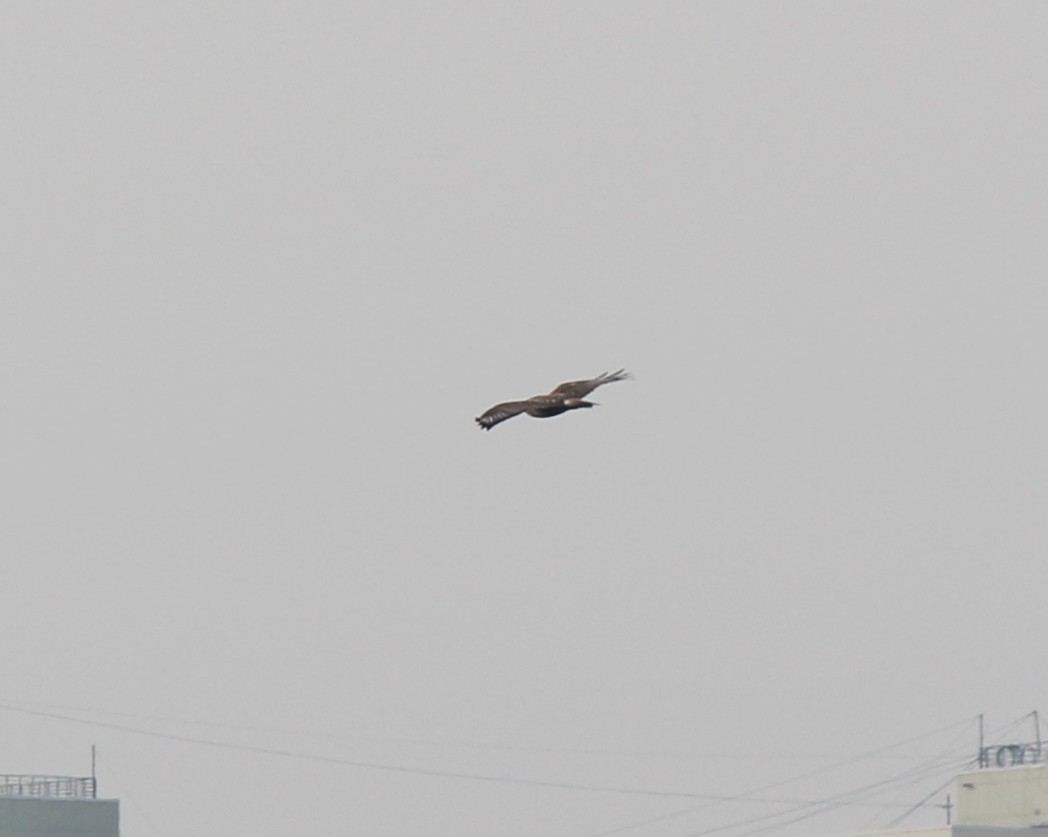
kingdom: Animalia
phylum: Chordata
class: Aves
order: Accipitriformes
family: Accipitridae
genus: Buteo
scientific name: Buteo hemilasius
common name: Upland buzzard
